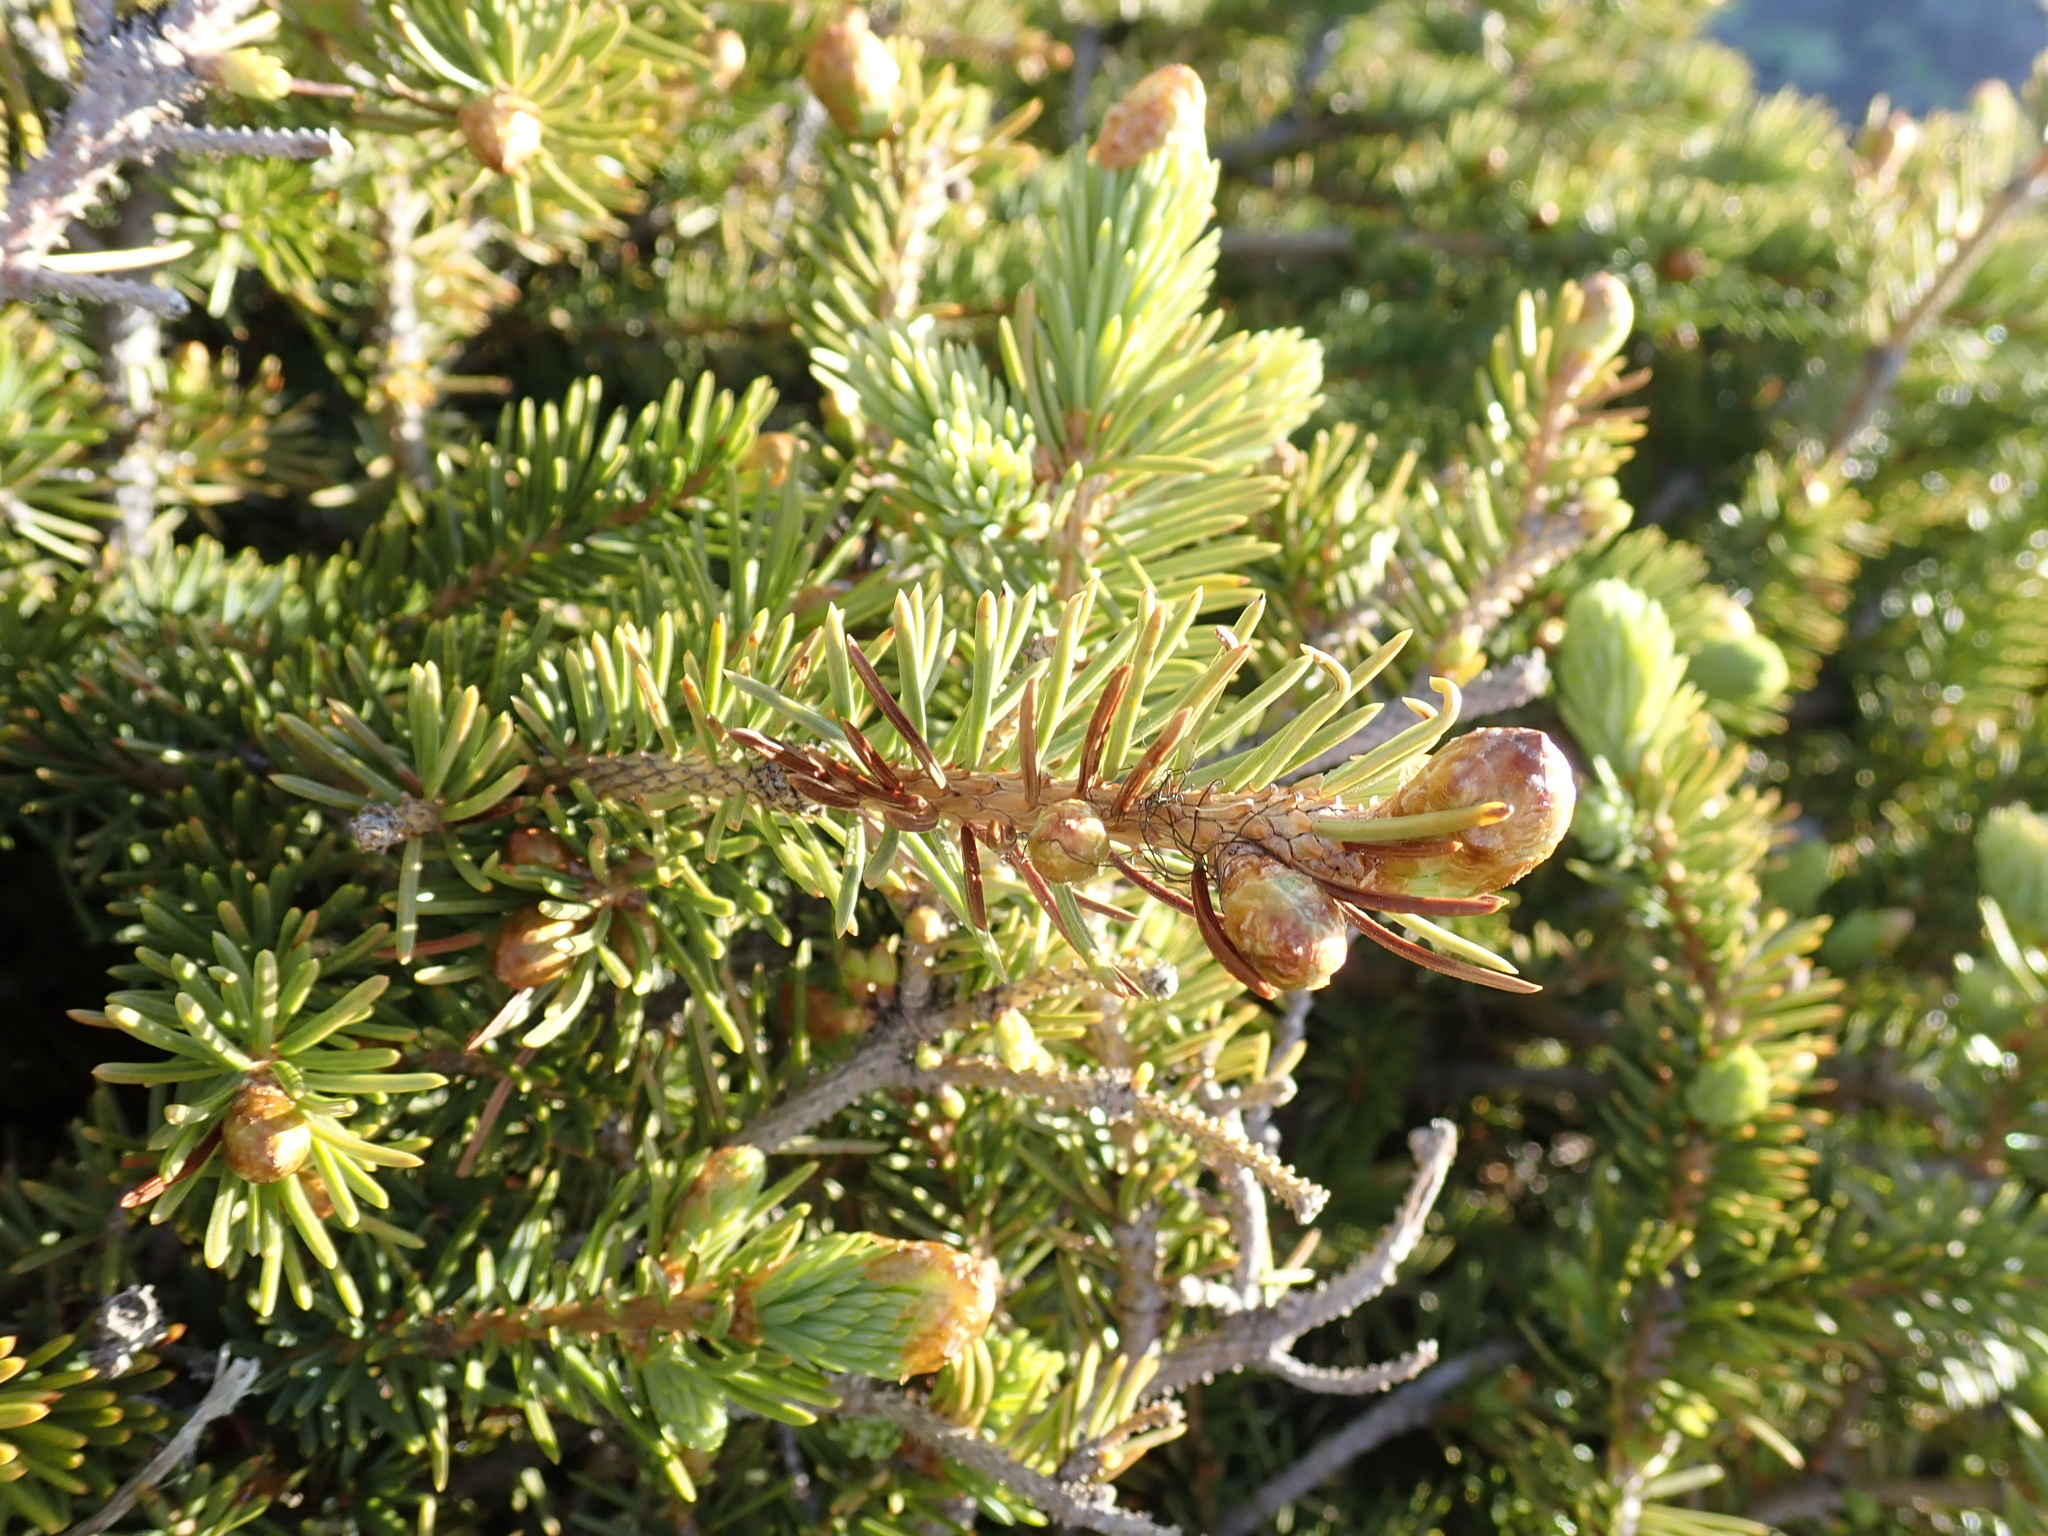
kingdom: Plantae
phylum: Tracheophyta
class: Pinopsida
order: Pinales
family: Pinaceae
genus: Picea
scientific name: Picea engelmannii
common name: Engelmann spruce
